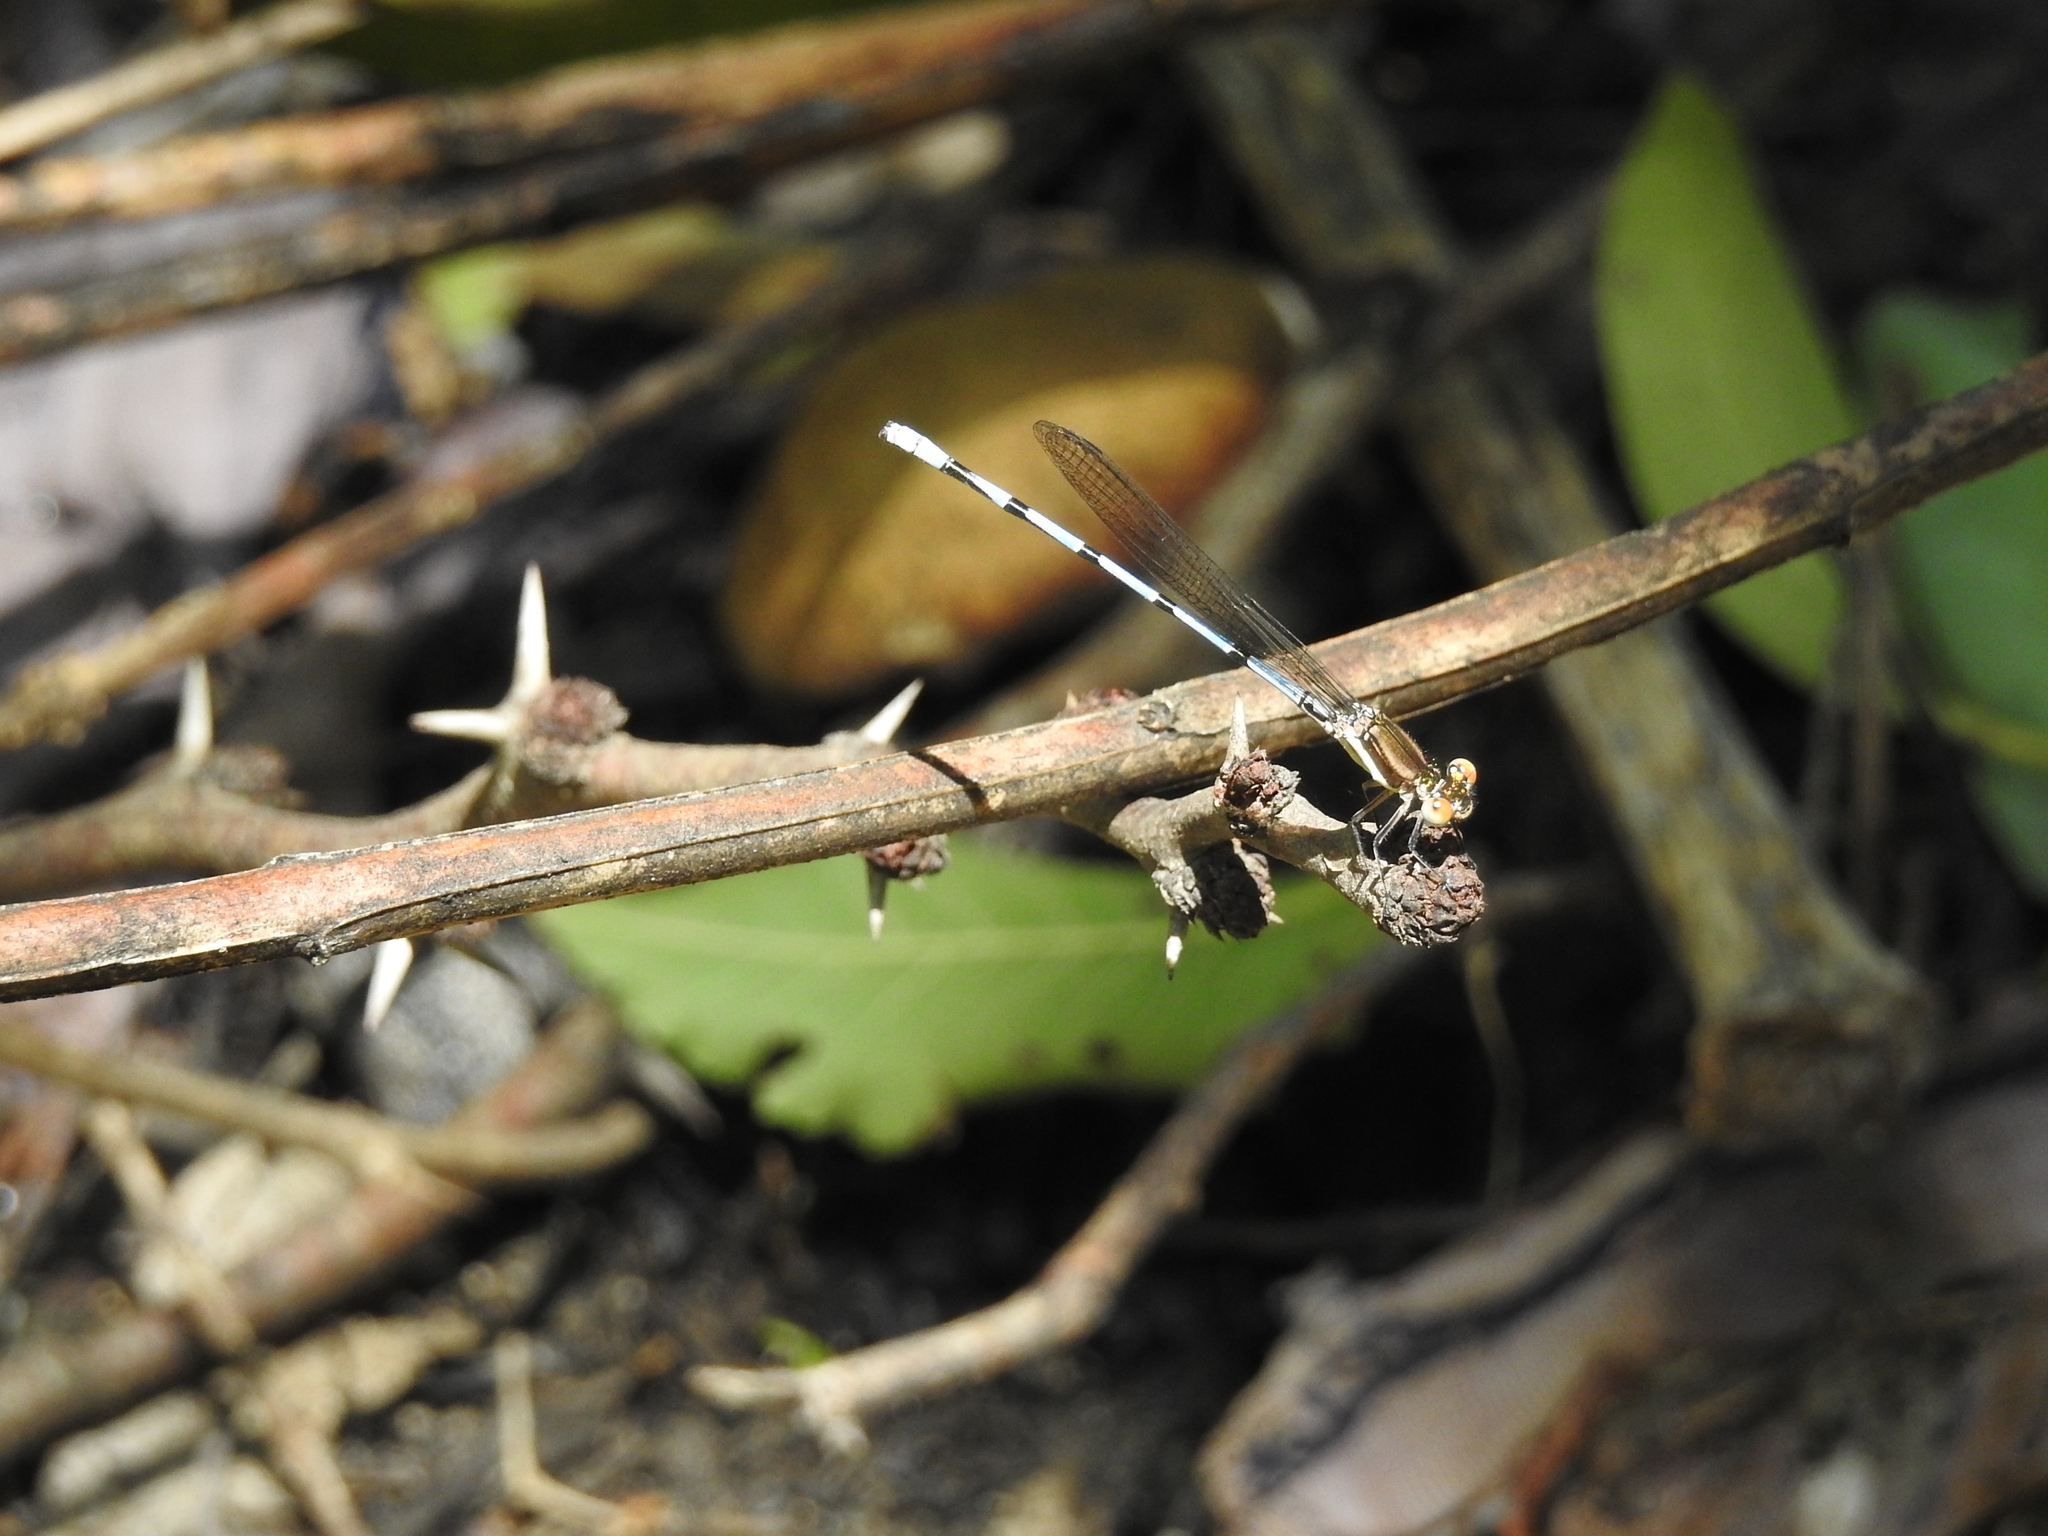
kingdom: Animalia
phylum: Arthropoda
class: Insecta
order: Odonata
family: Coenagrionidae
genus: Argia
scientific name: Argia joergenseni
